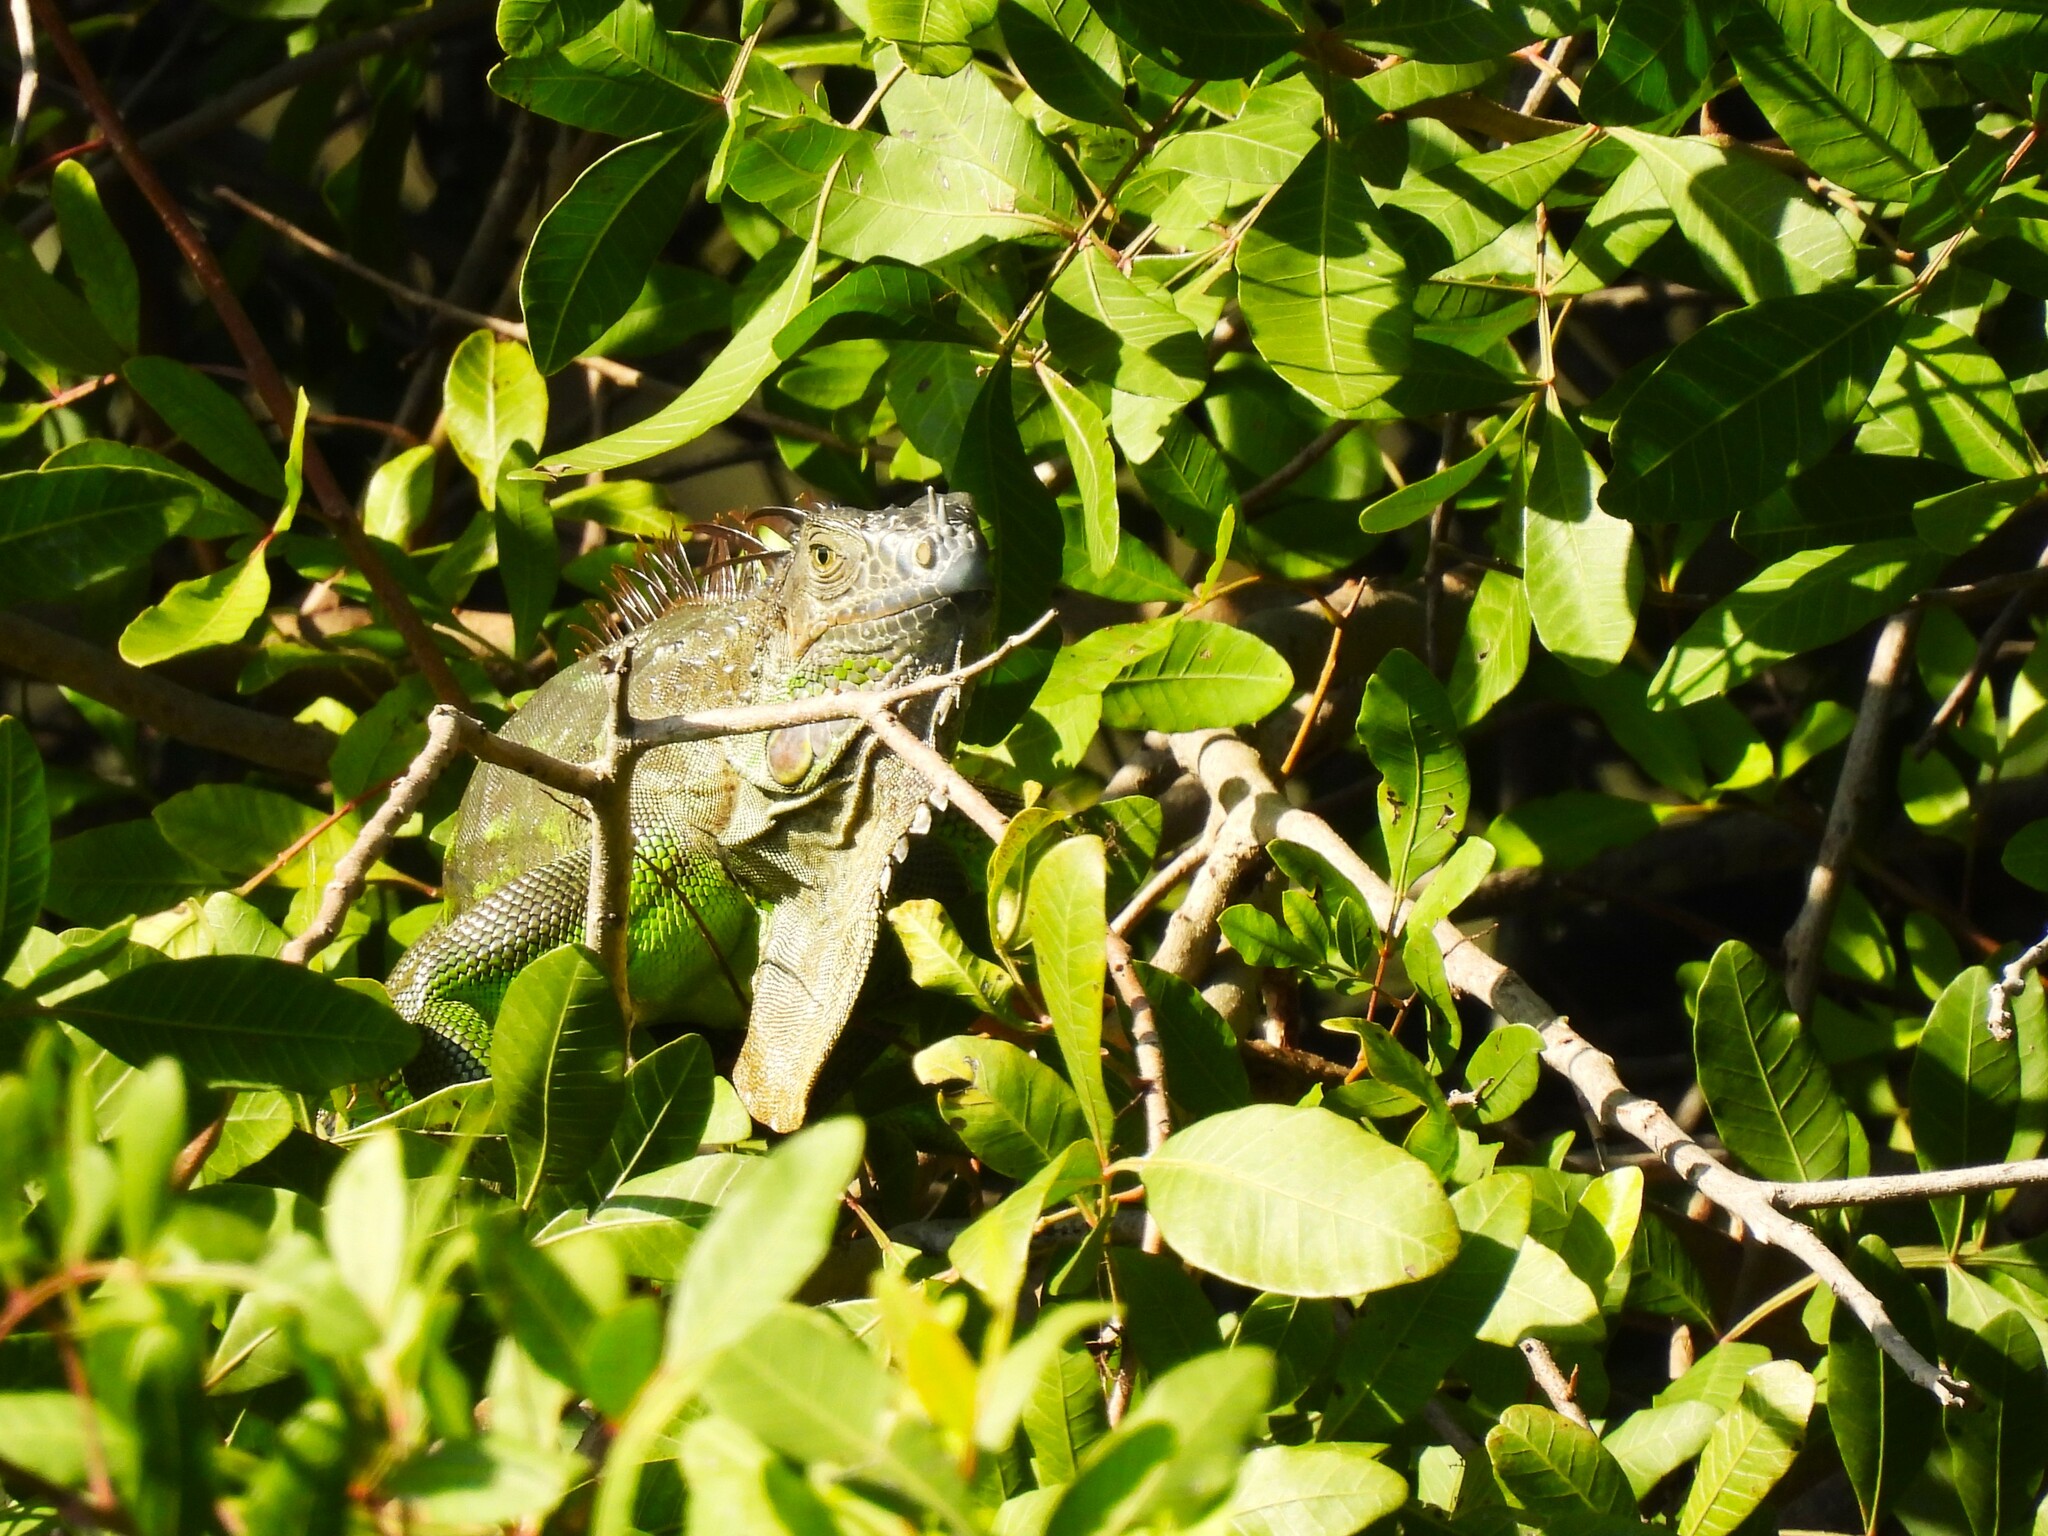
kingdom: Animalia
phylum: Chordata
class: Squamata
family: Iguanidae
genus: Iguana
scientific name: Iguana iguana
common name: Green iguana
